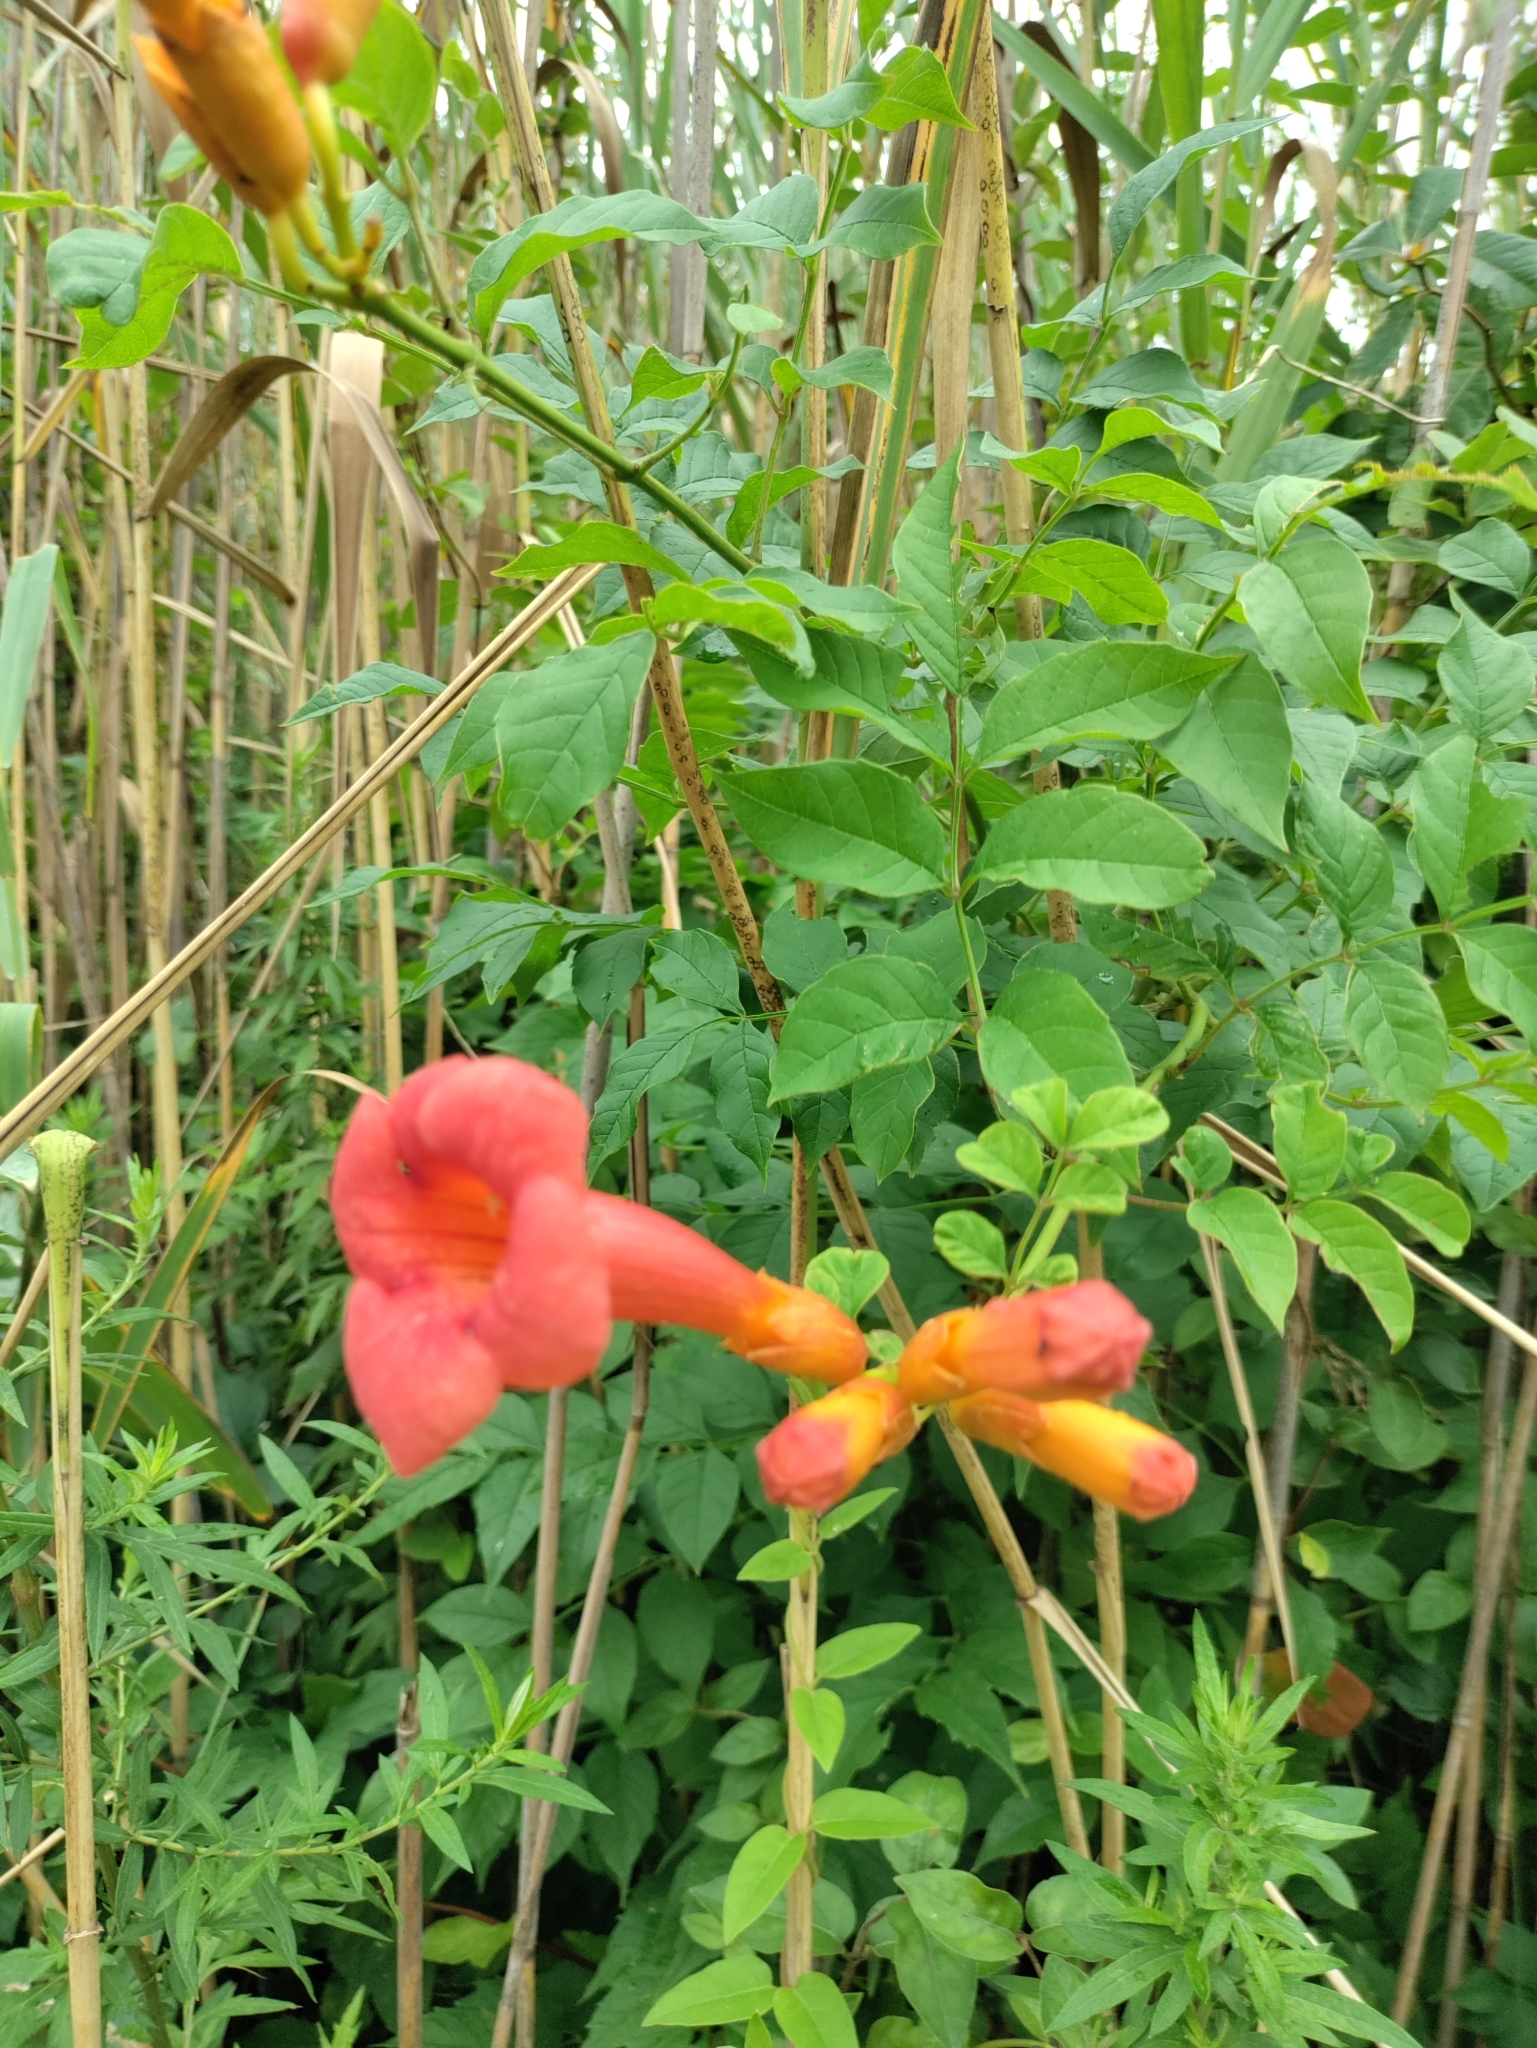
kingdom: Plantae
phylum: Tracheophyta
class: Magnoliopsida
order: Lamiales
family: Bignoniaceae
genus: Campsis
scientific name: Campsis radicans
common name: Trumpet-creeper
